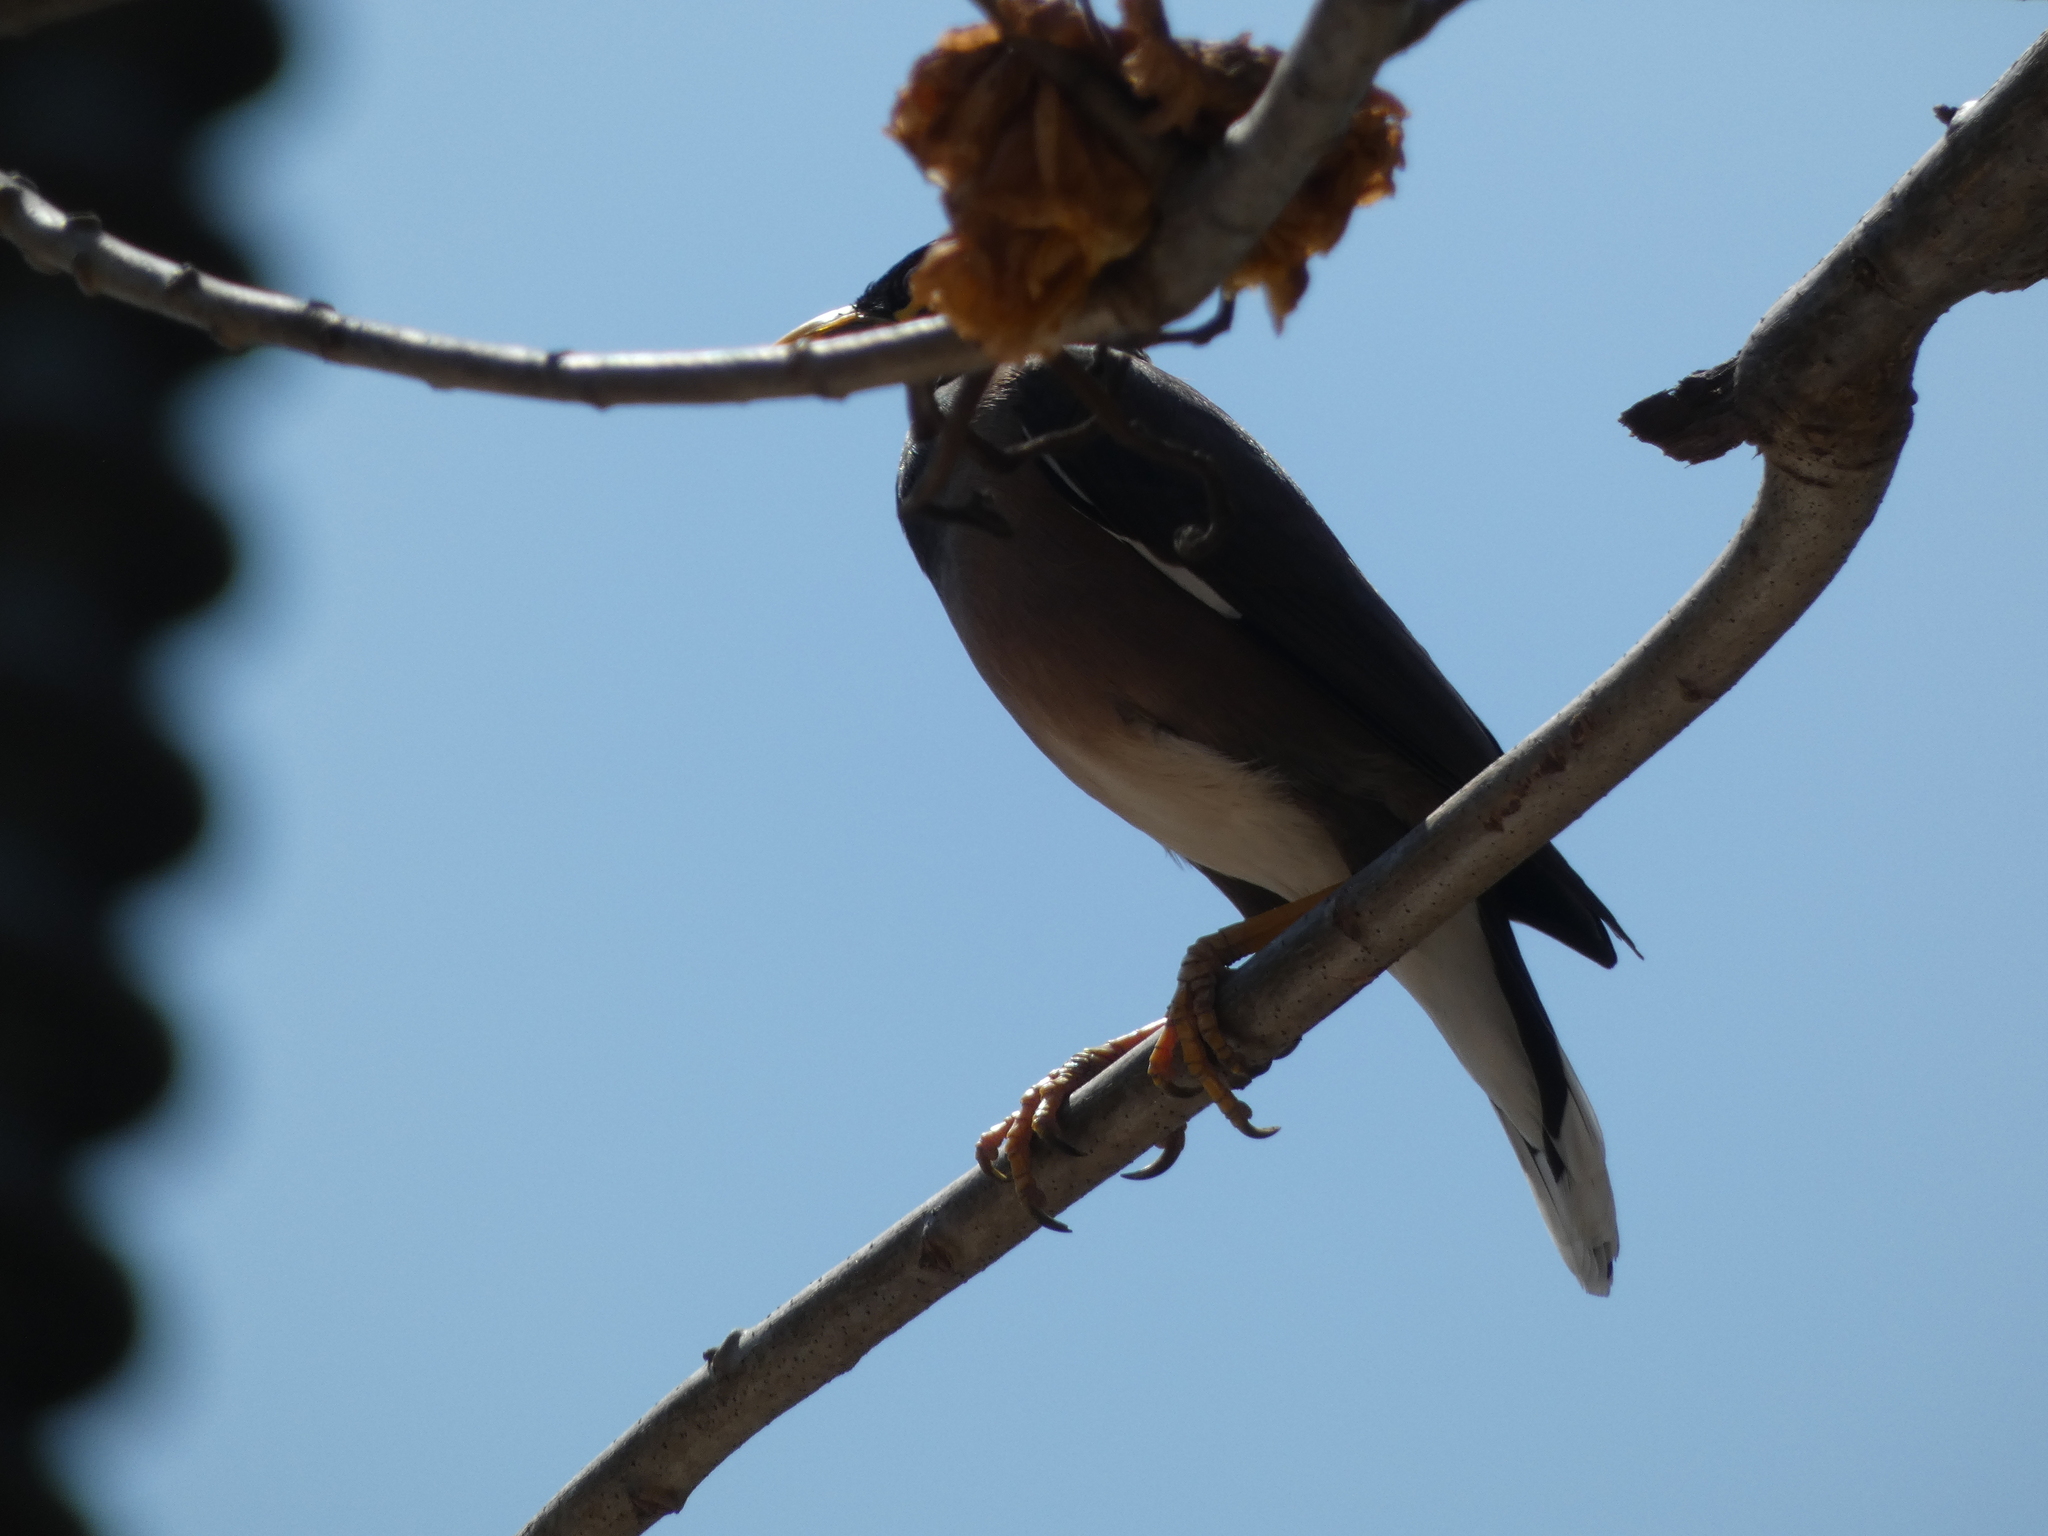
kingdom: Animalia
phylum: Chordata
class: Aves
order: Passeriformes
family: Sturnidae
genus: Acridotheres
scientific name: Acridotheres tristis
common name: Common myna
